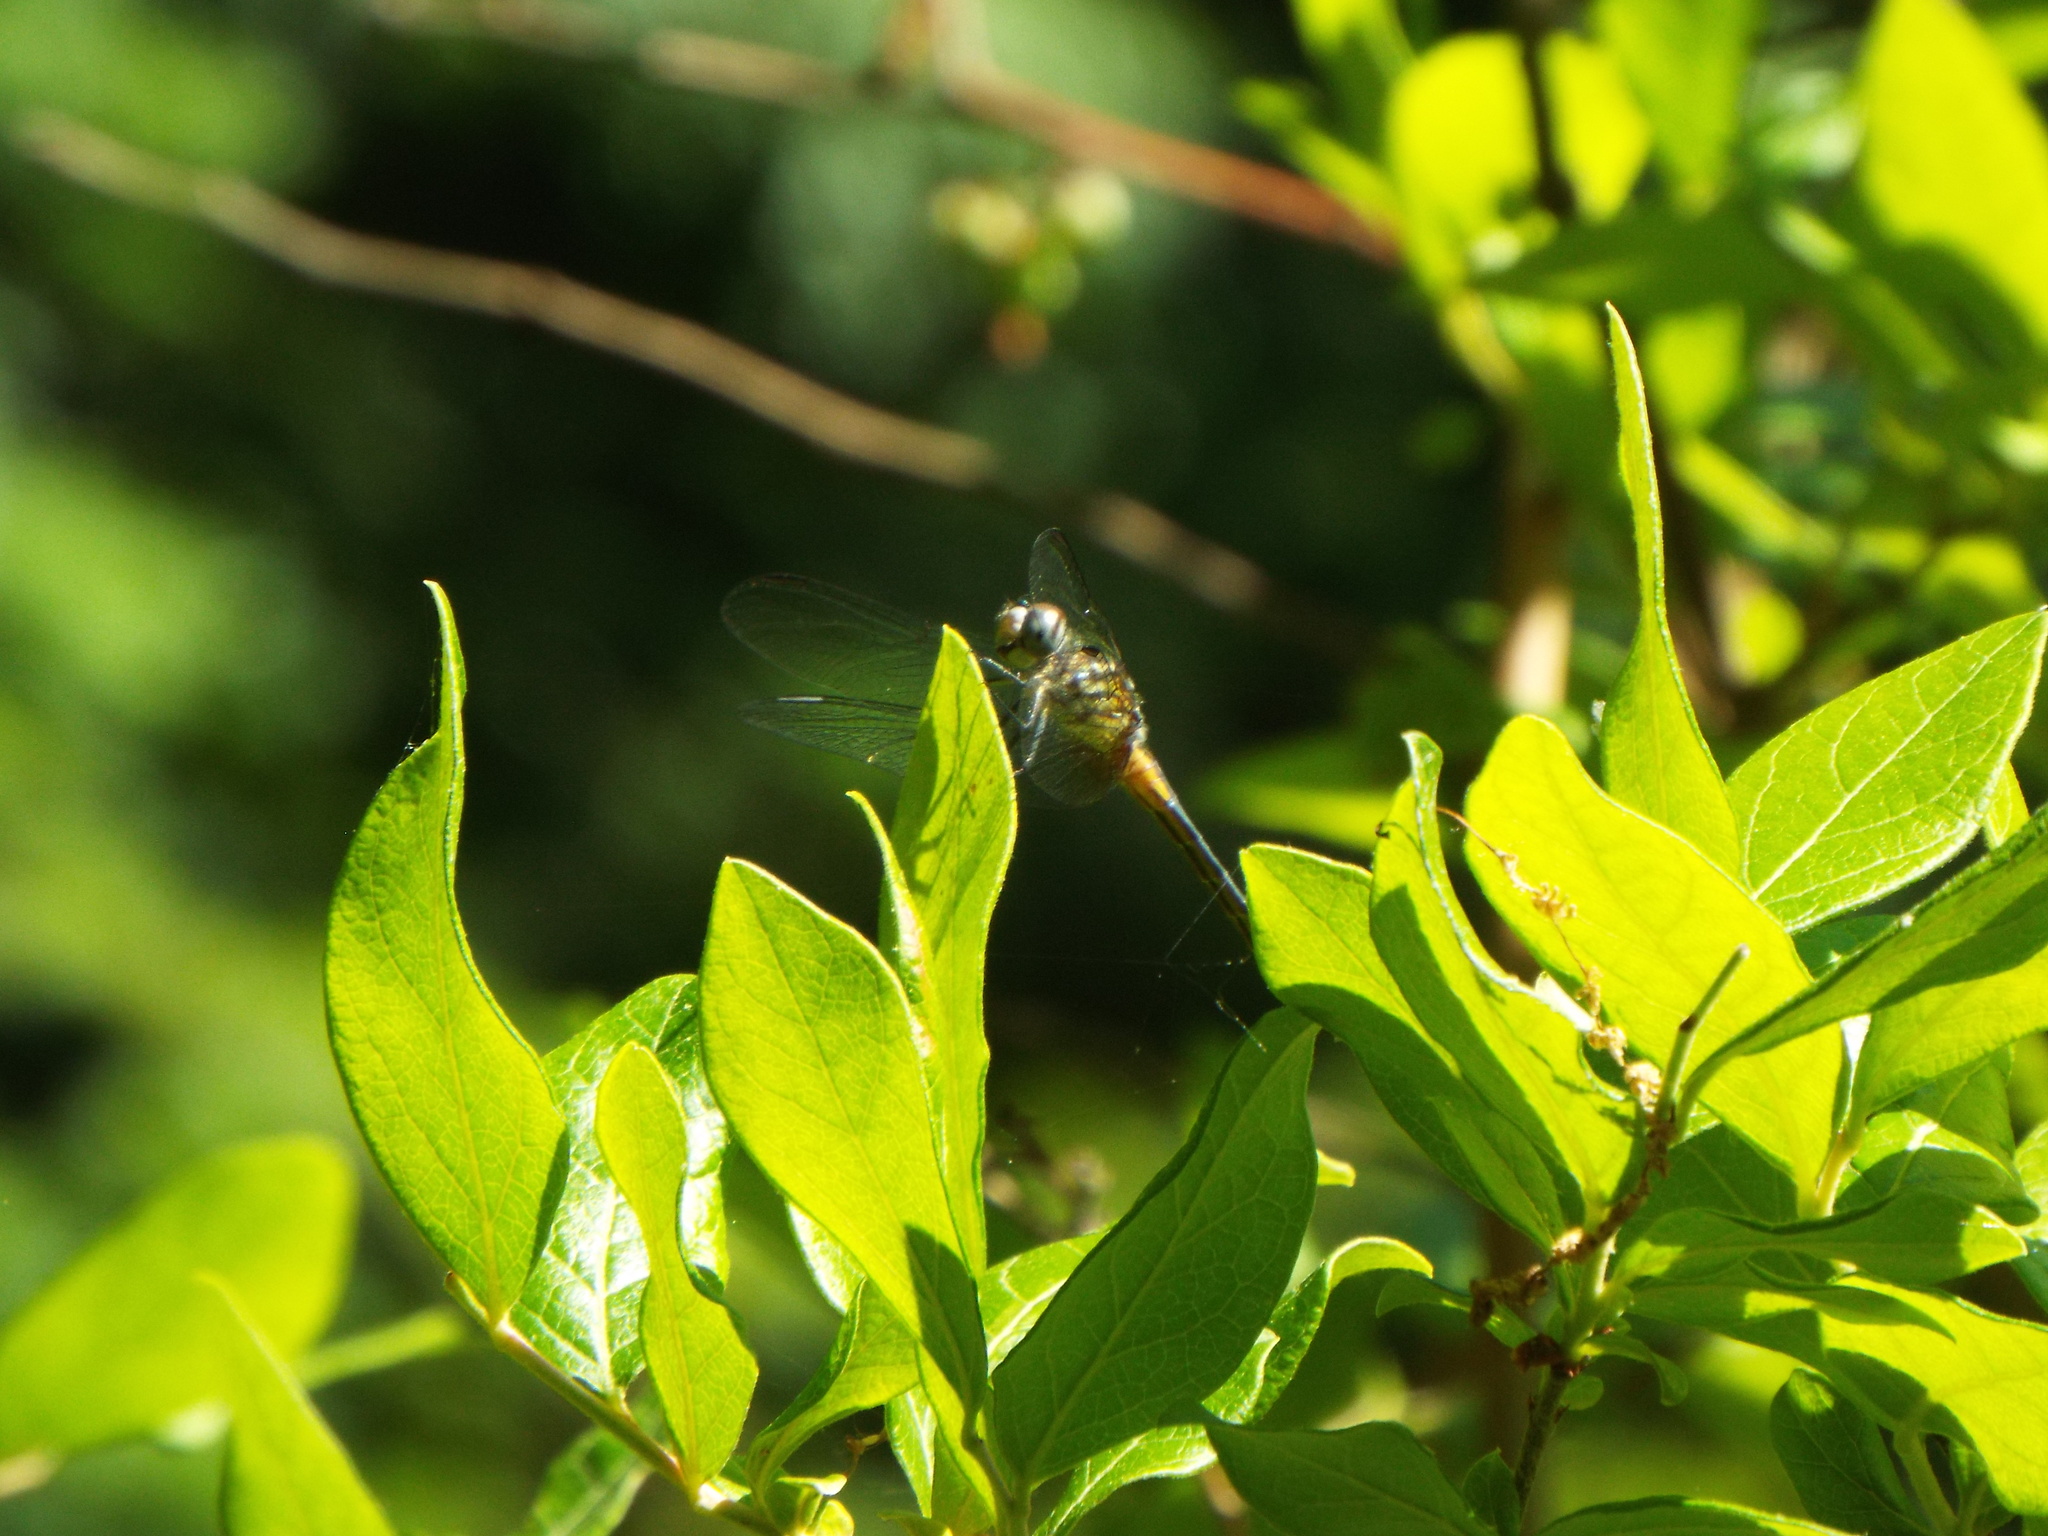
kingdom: Animalia
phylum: Arthropoda
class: Insecta
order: Odonata
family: Libellulidae
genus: Pachydiplax
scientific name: Pachydiplax longipennis
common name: Blue dasher
